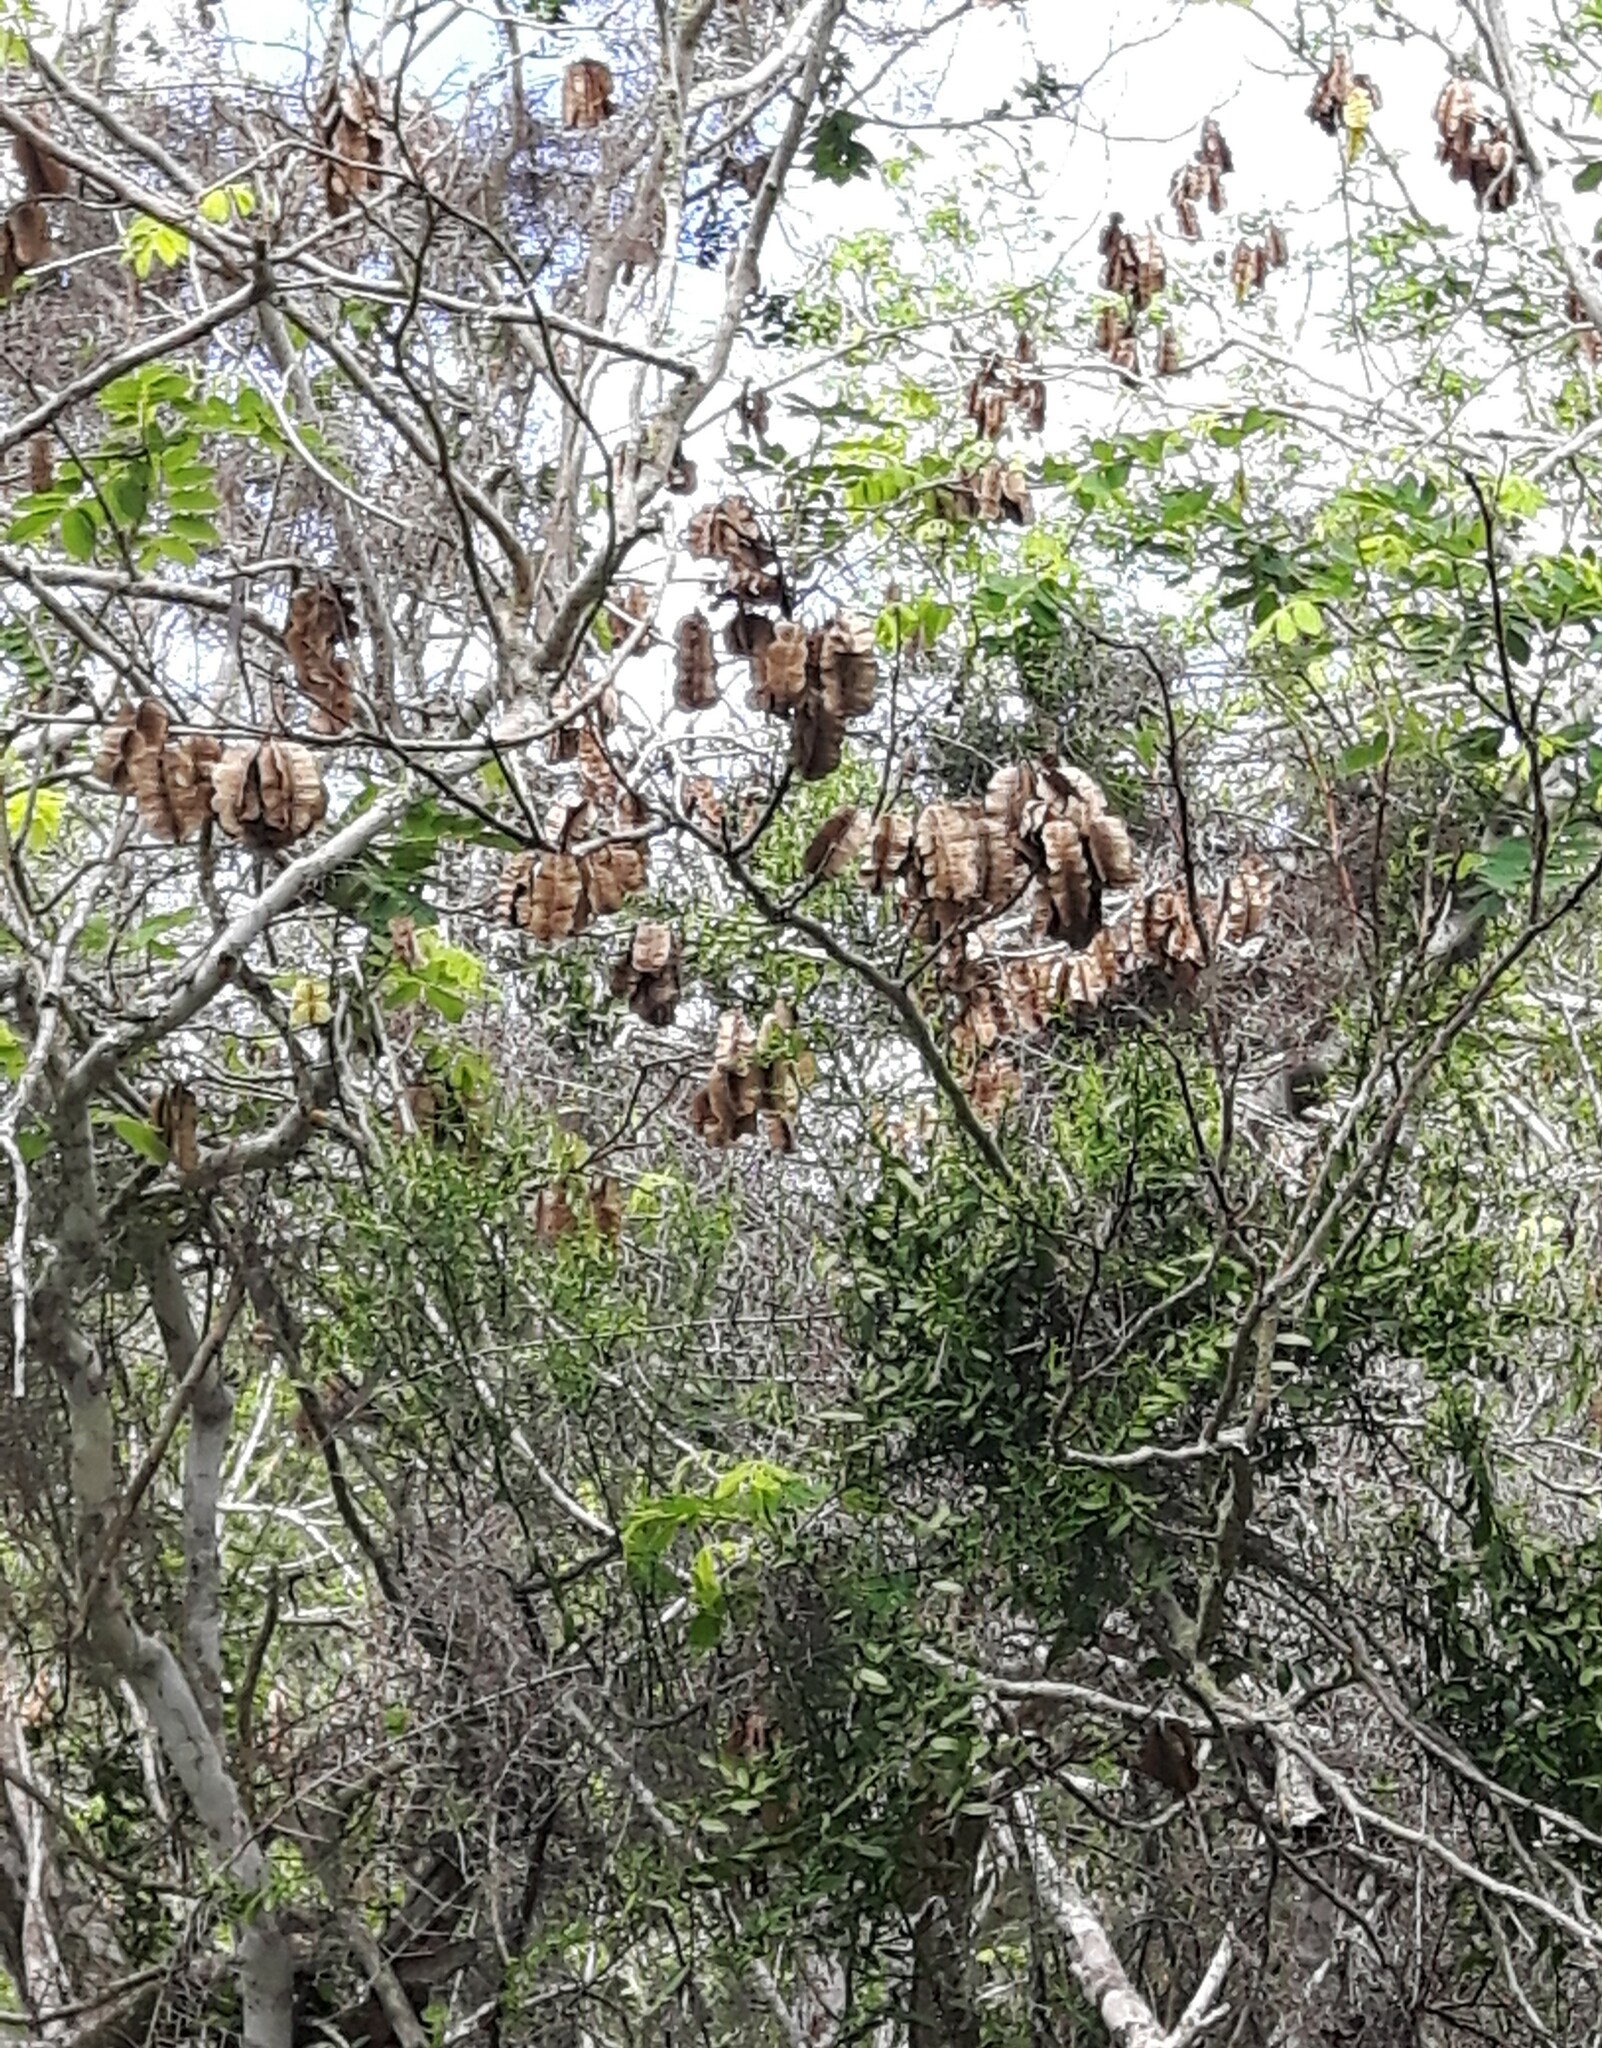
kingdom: Plantae
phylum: Tracheophyta
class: Magnoliopsida
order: Fabales
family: Fabaceae
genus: Piscidia
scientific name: Piscidia carthagenensis
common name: Stinkwood
